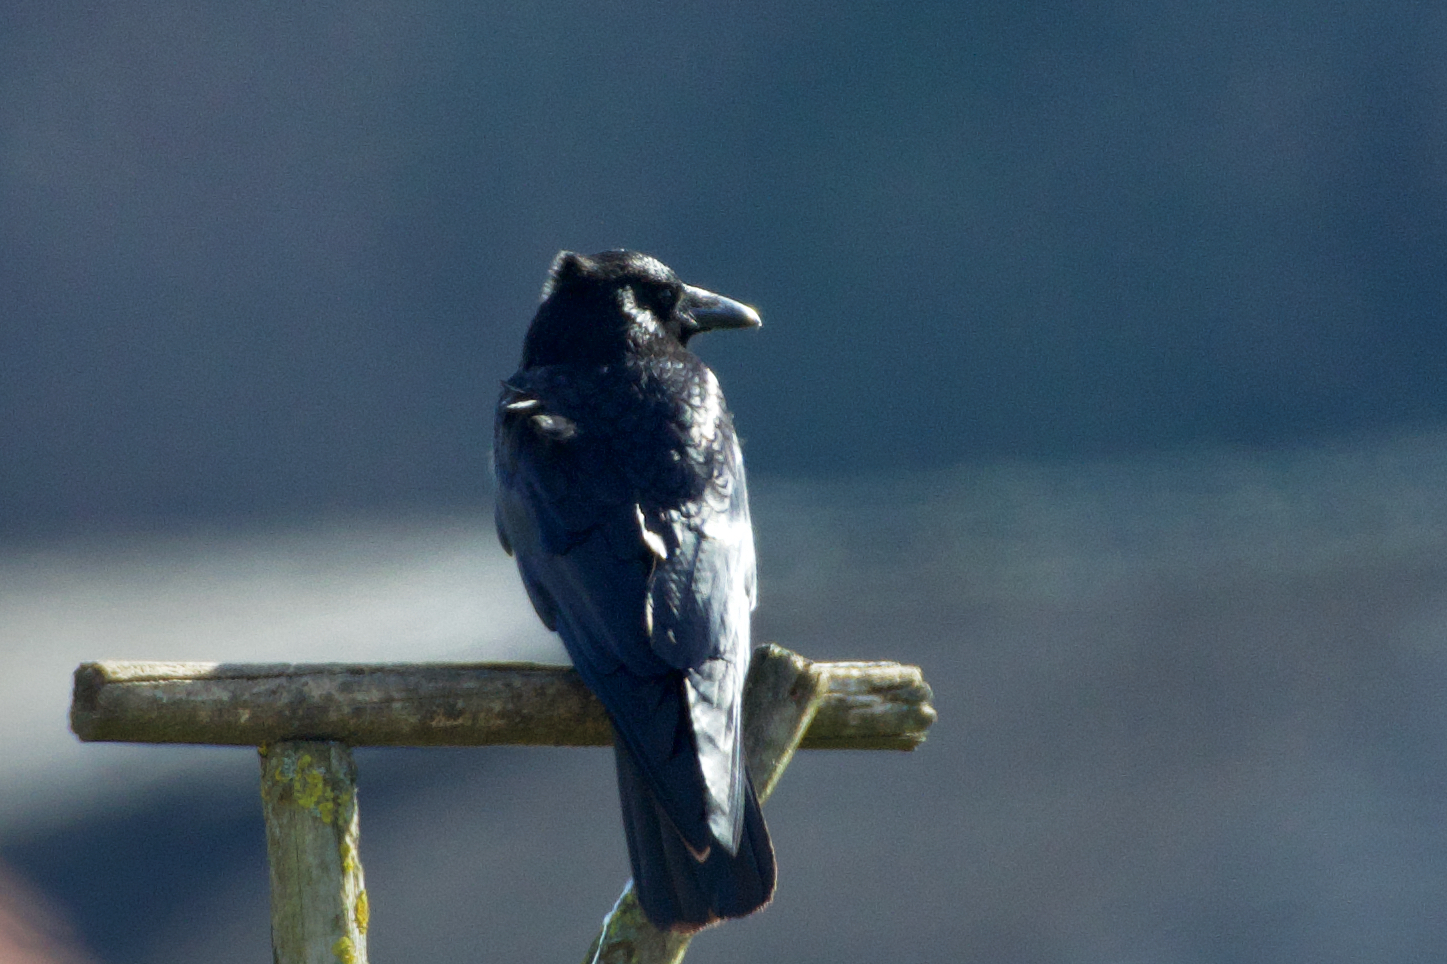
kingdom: Animalia
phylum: Chordata
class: Aves
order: Passeriformes
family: Corvidae
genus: Corvus
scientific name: Corvus corone
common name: Carrion crow
